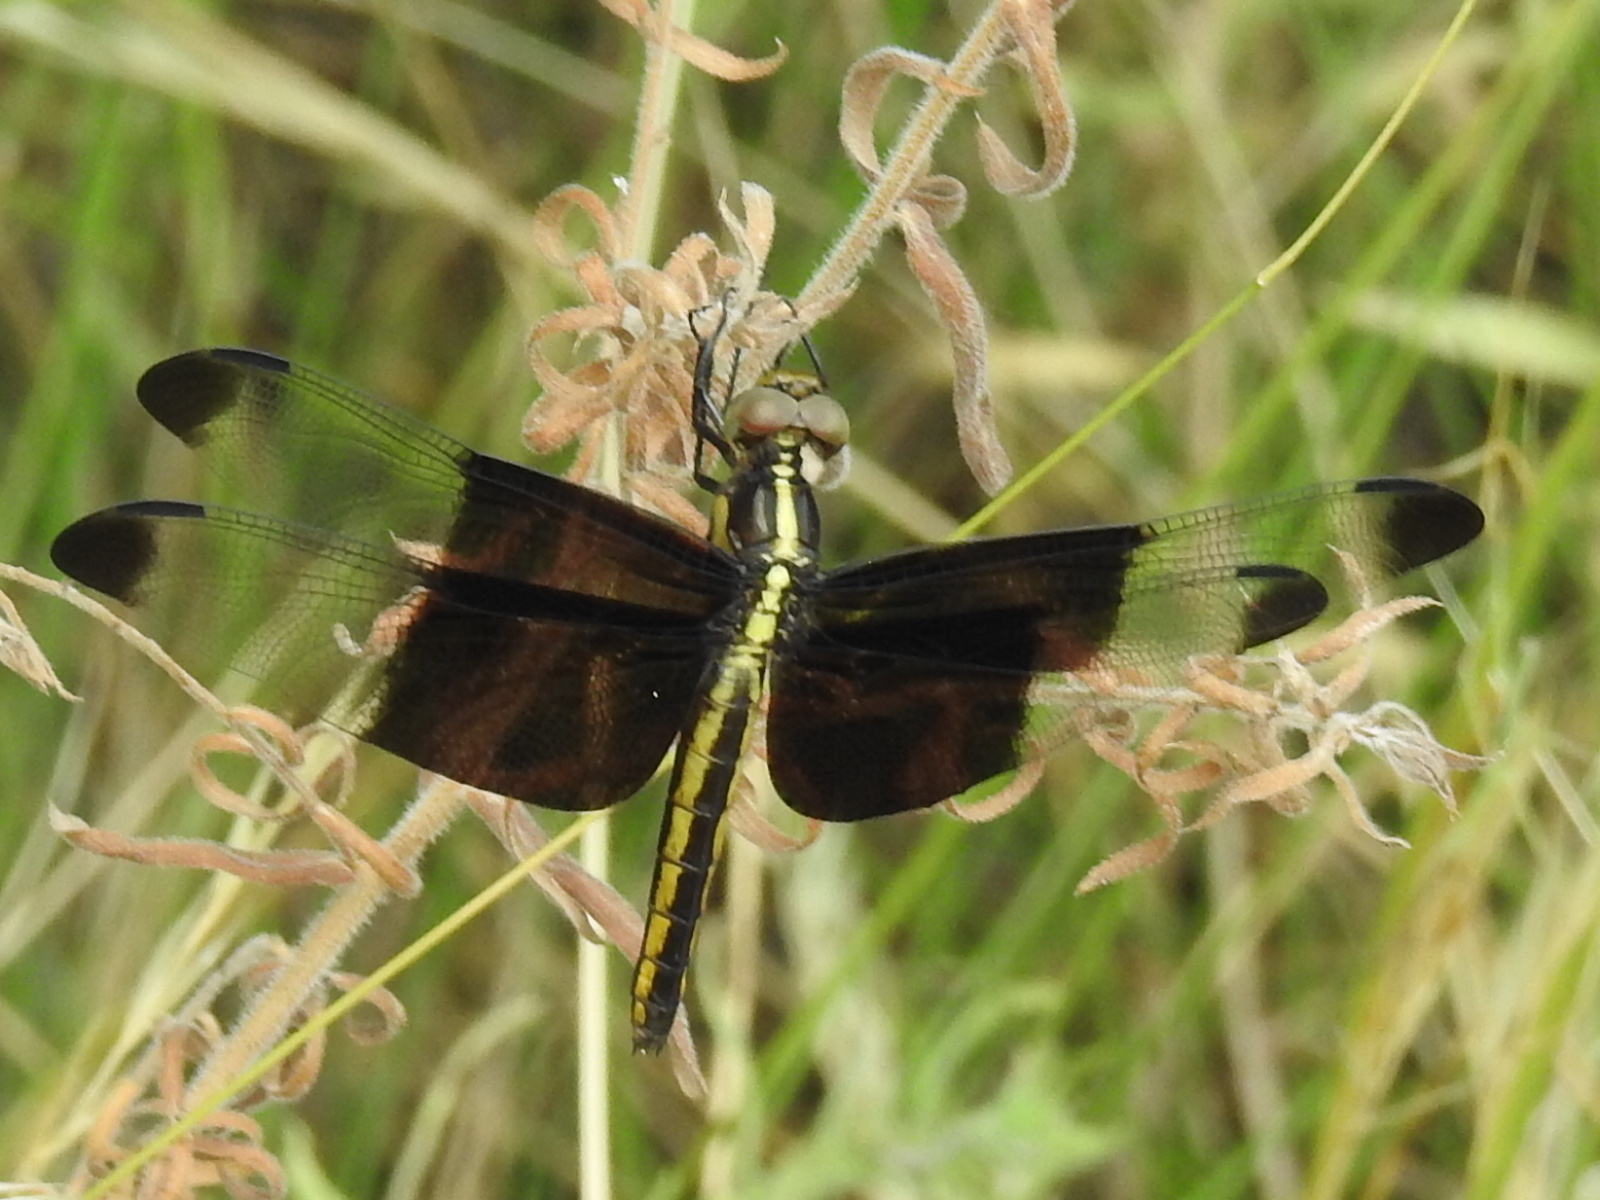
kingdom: Animalia
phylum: Arthropoda
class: Insecta
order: Odonata
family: Libellulidae
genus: Libellula
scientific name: Libellula luctuosa
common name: Widow skimmer
